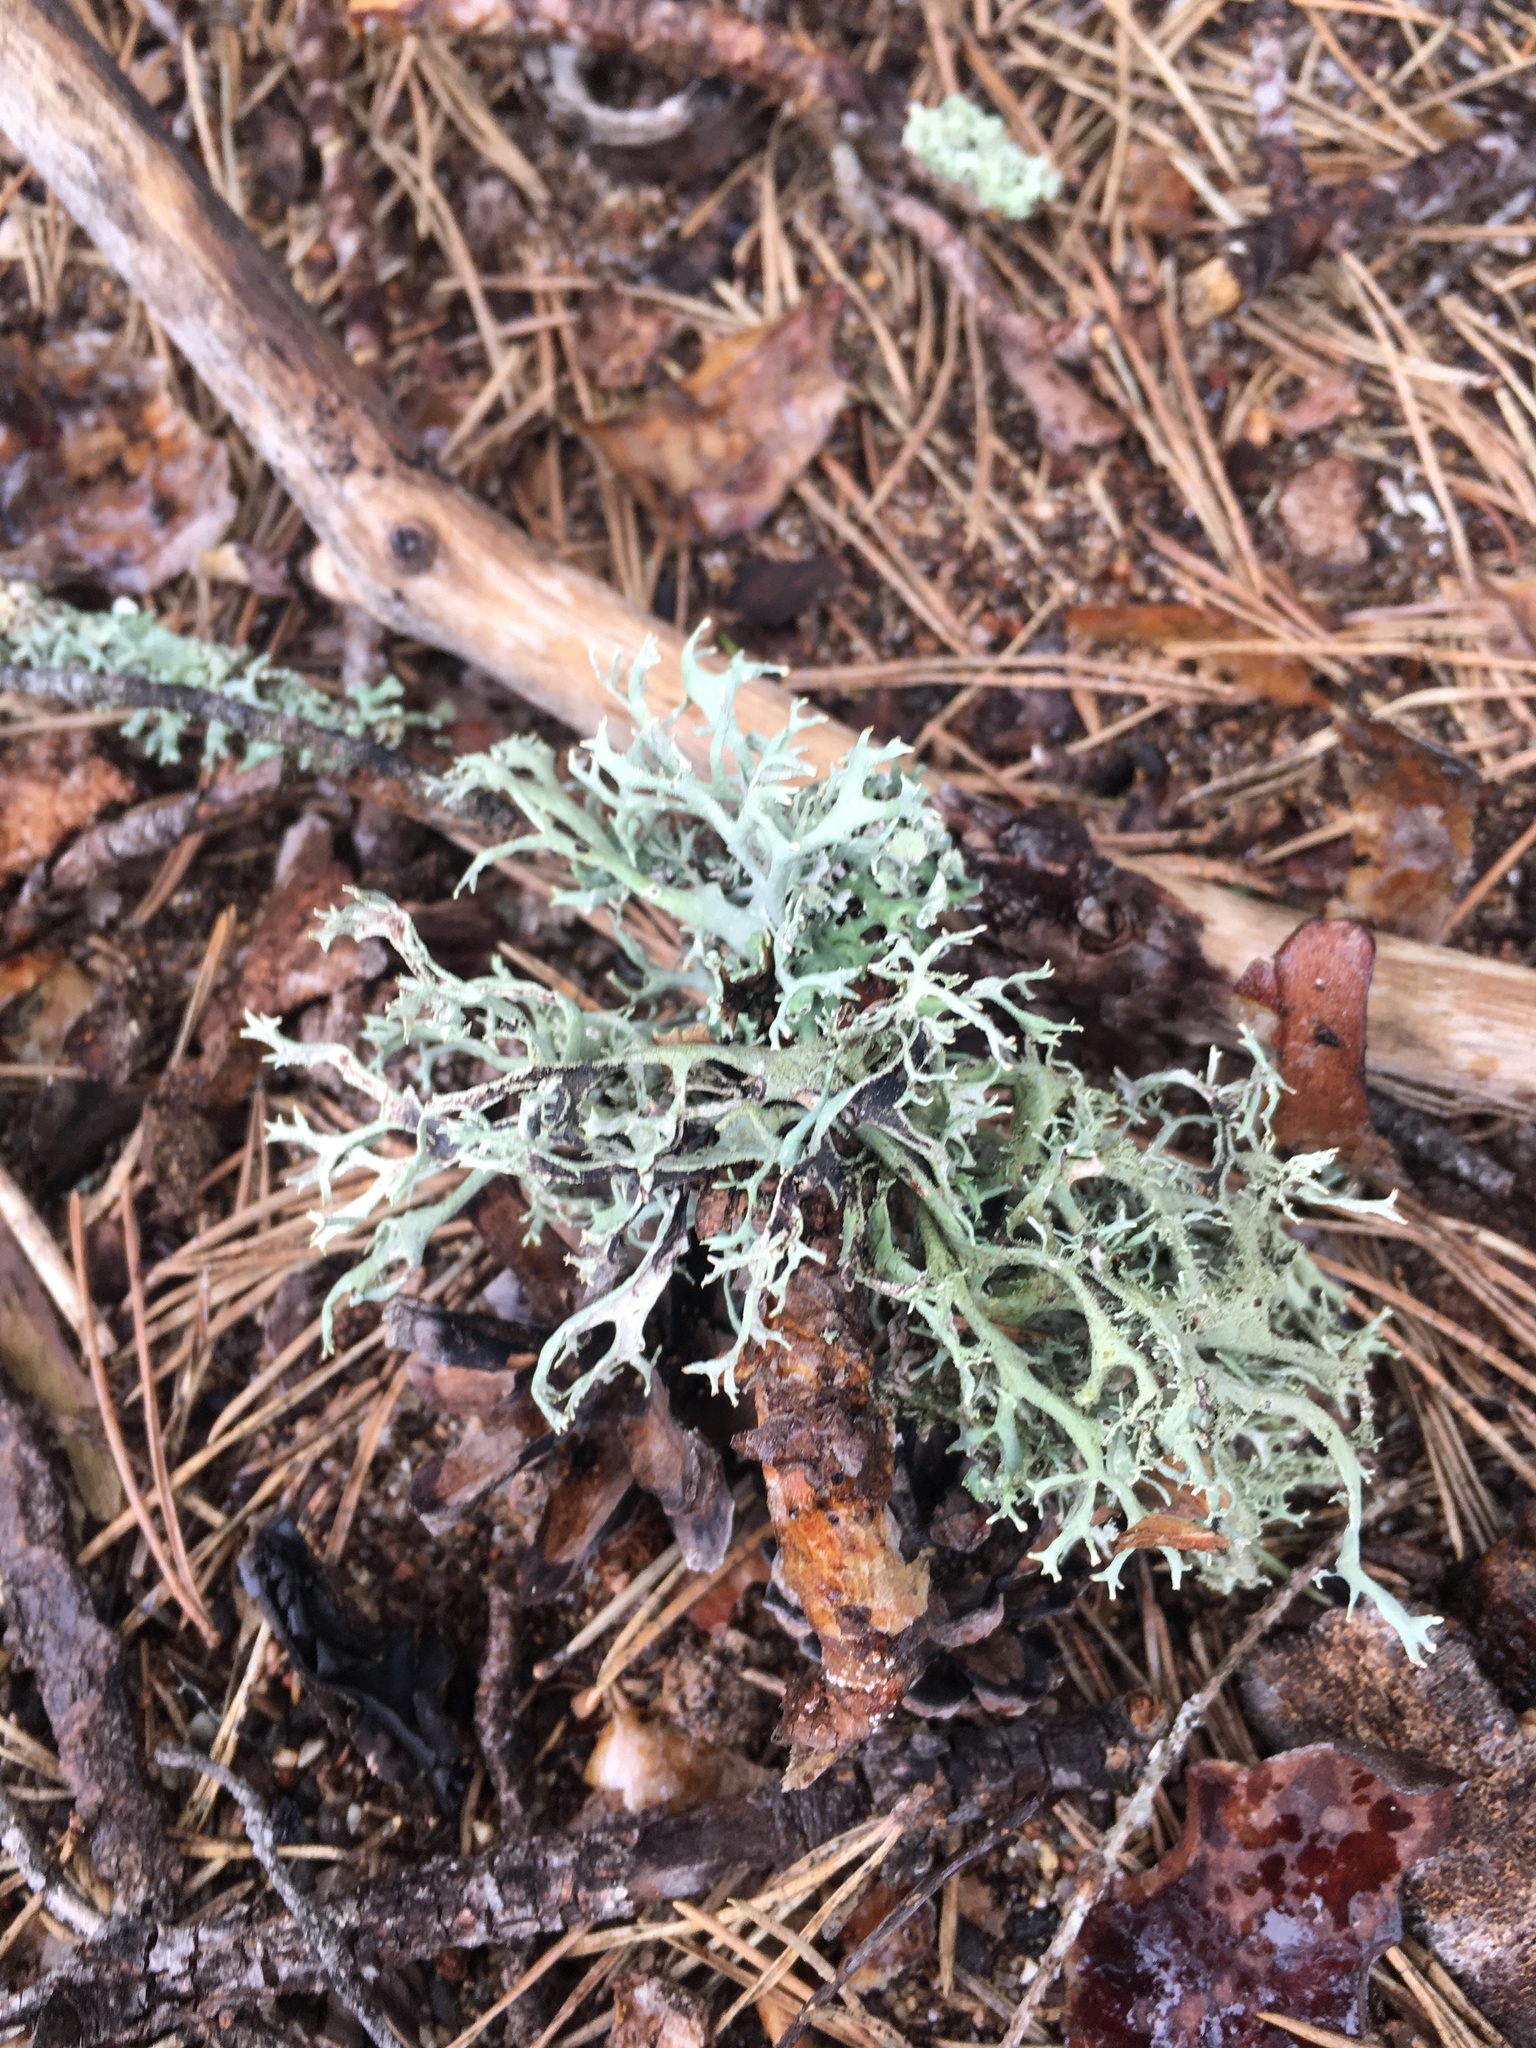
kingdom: Fungi
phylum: Ascomycota
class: Lecanoromycetes
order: Lecanorales
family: Parmeliaceae
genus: Pseudevernia
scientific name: Pseudevernia furfuracea
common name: Tree moss
